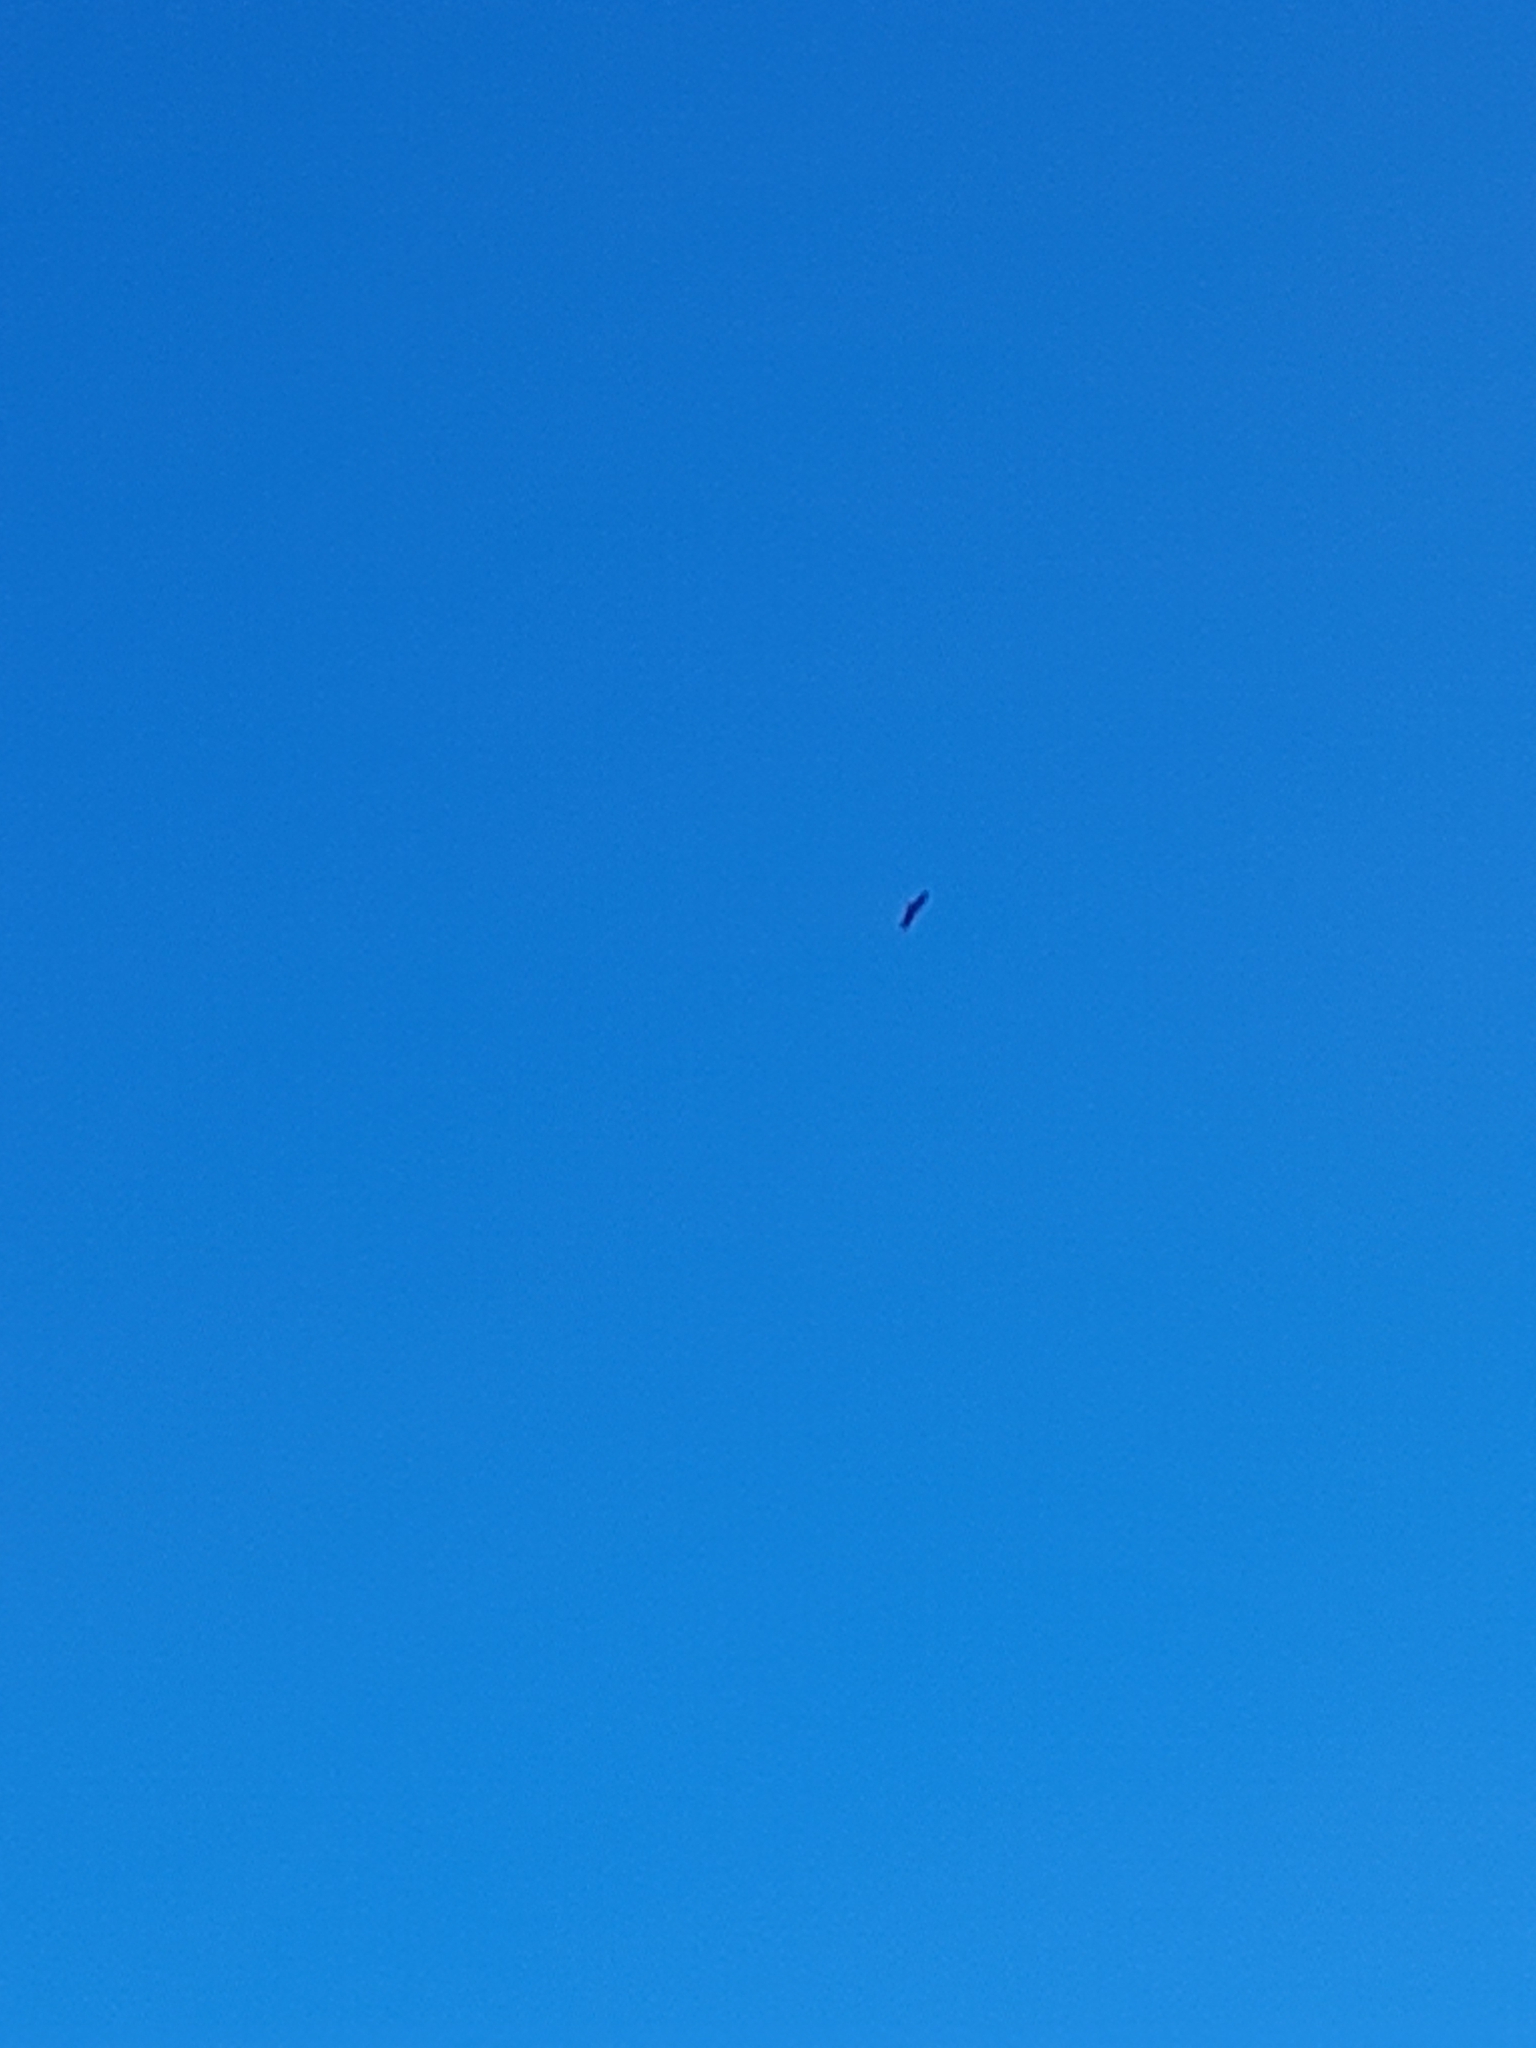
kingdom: Animalia
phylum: Chordata
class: Aves
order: Accipitriformes
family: Accipitridae
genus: Milvus
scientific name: Milvus migrans
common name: Black kite
